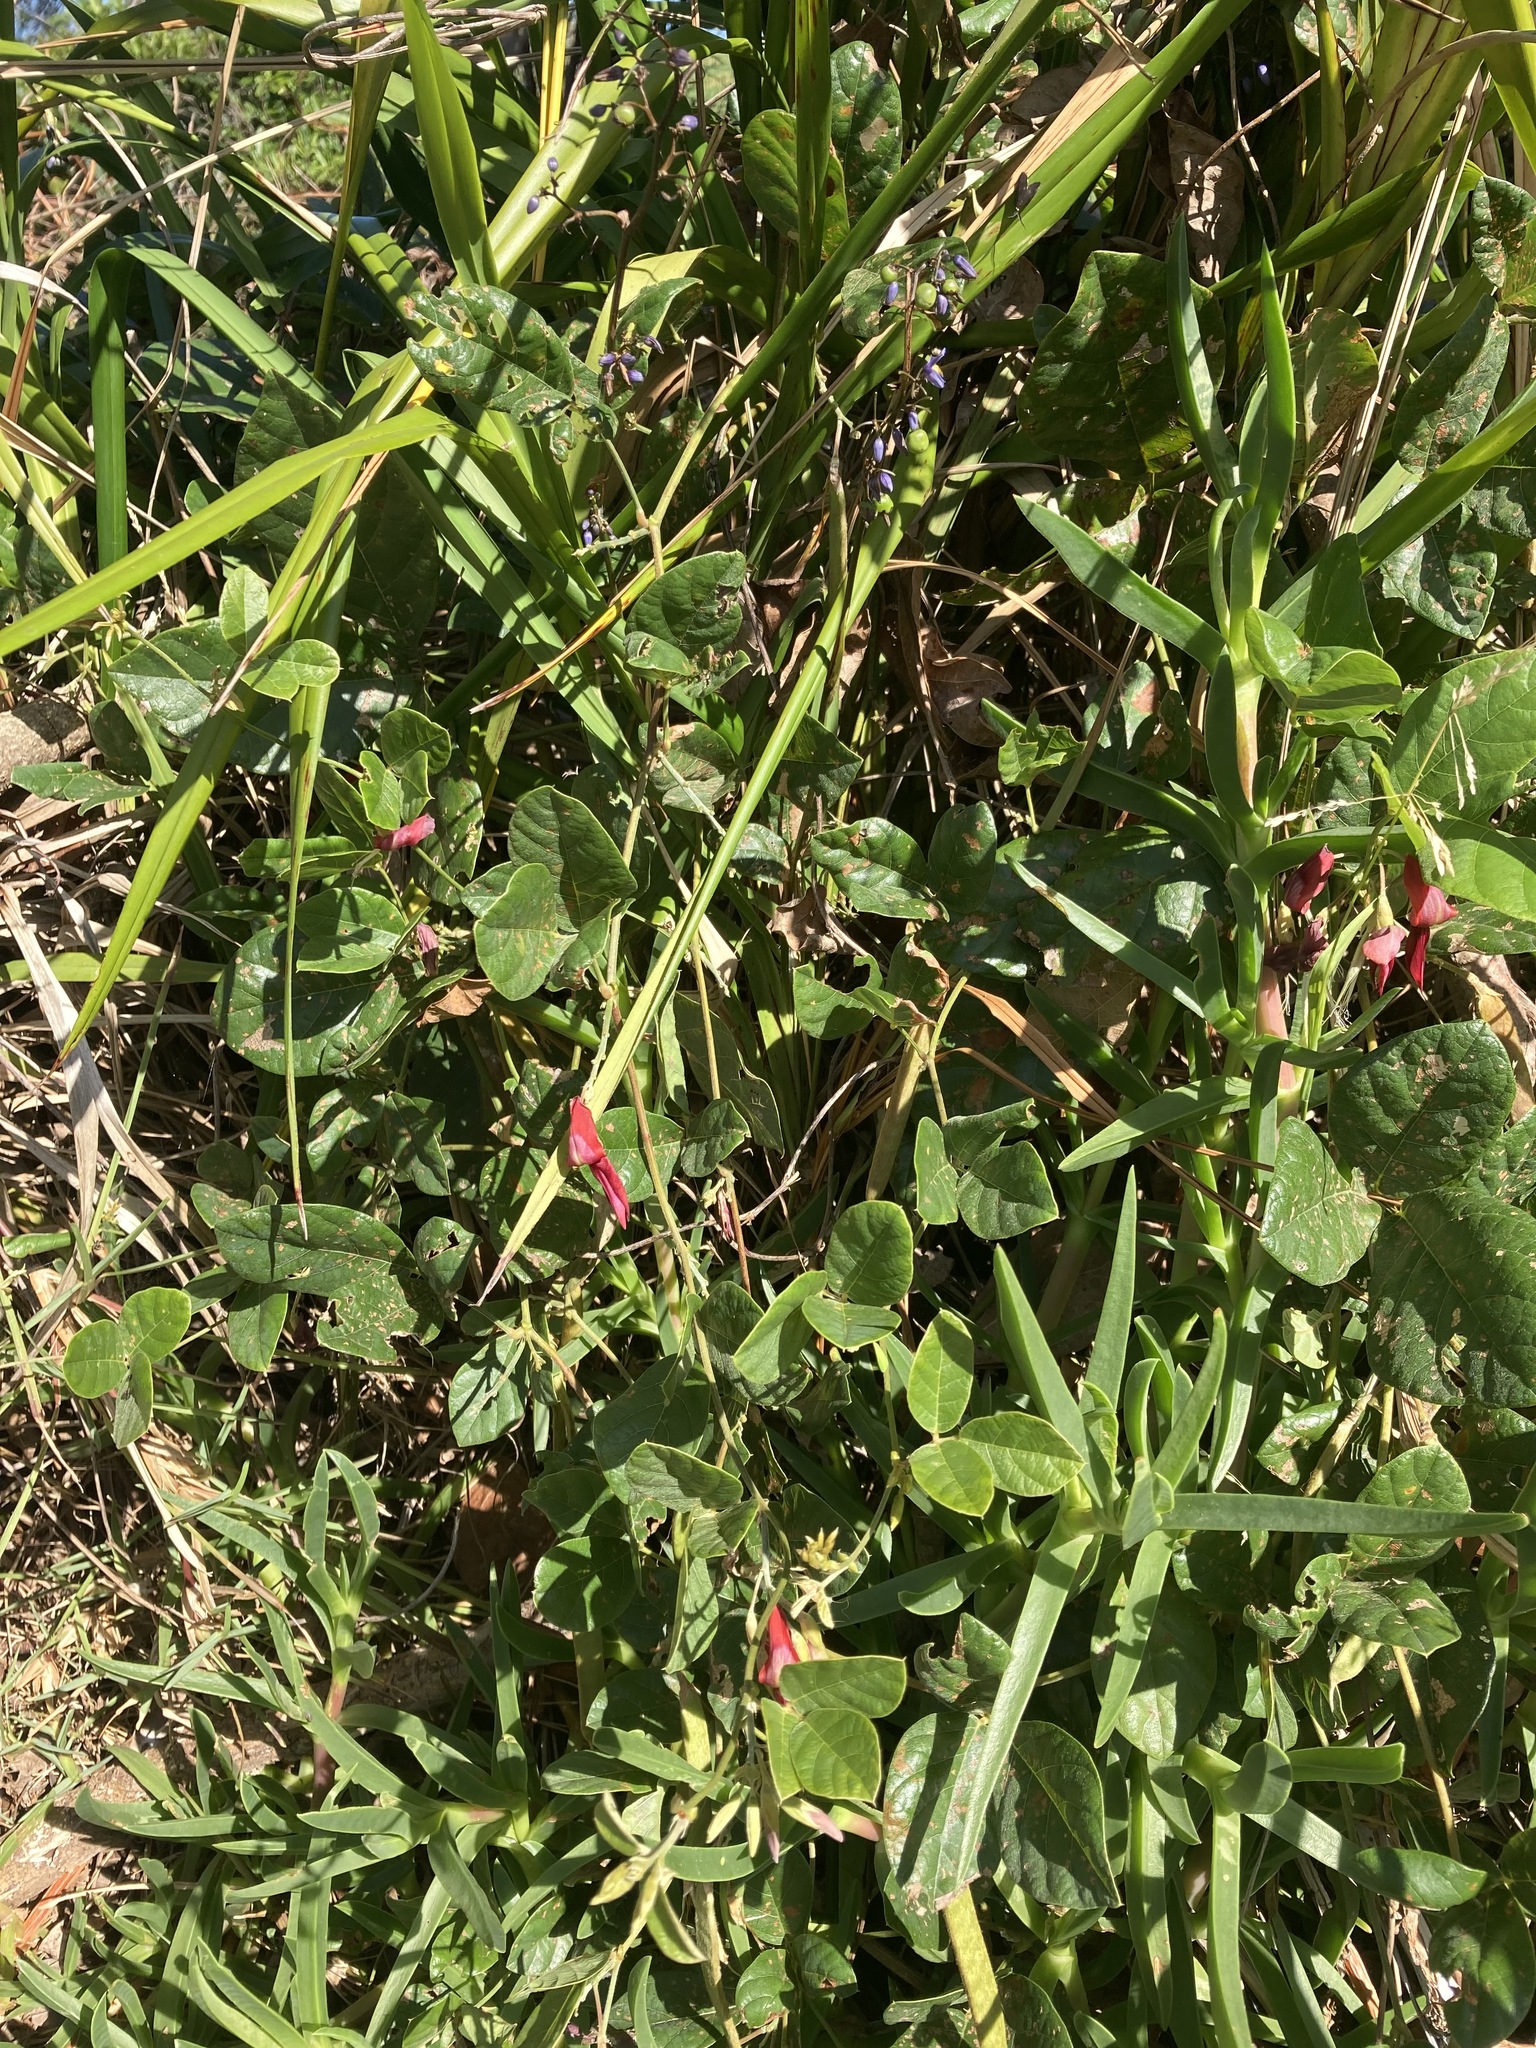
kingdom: Plantae
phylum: Tracheophyta
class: Magnoliopsida
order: Fabales
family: Fabaceae
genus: Kennedia
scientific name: Kennedia rubicunda
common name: Red kennedy-pea
